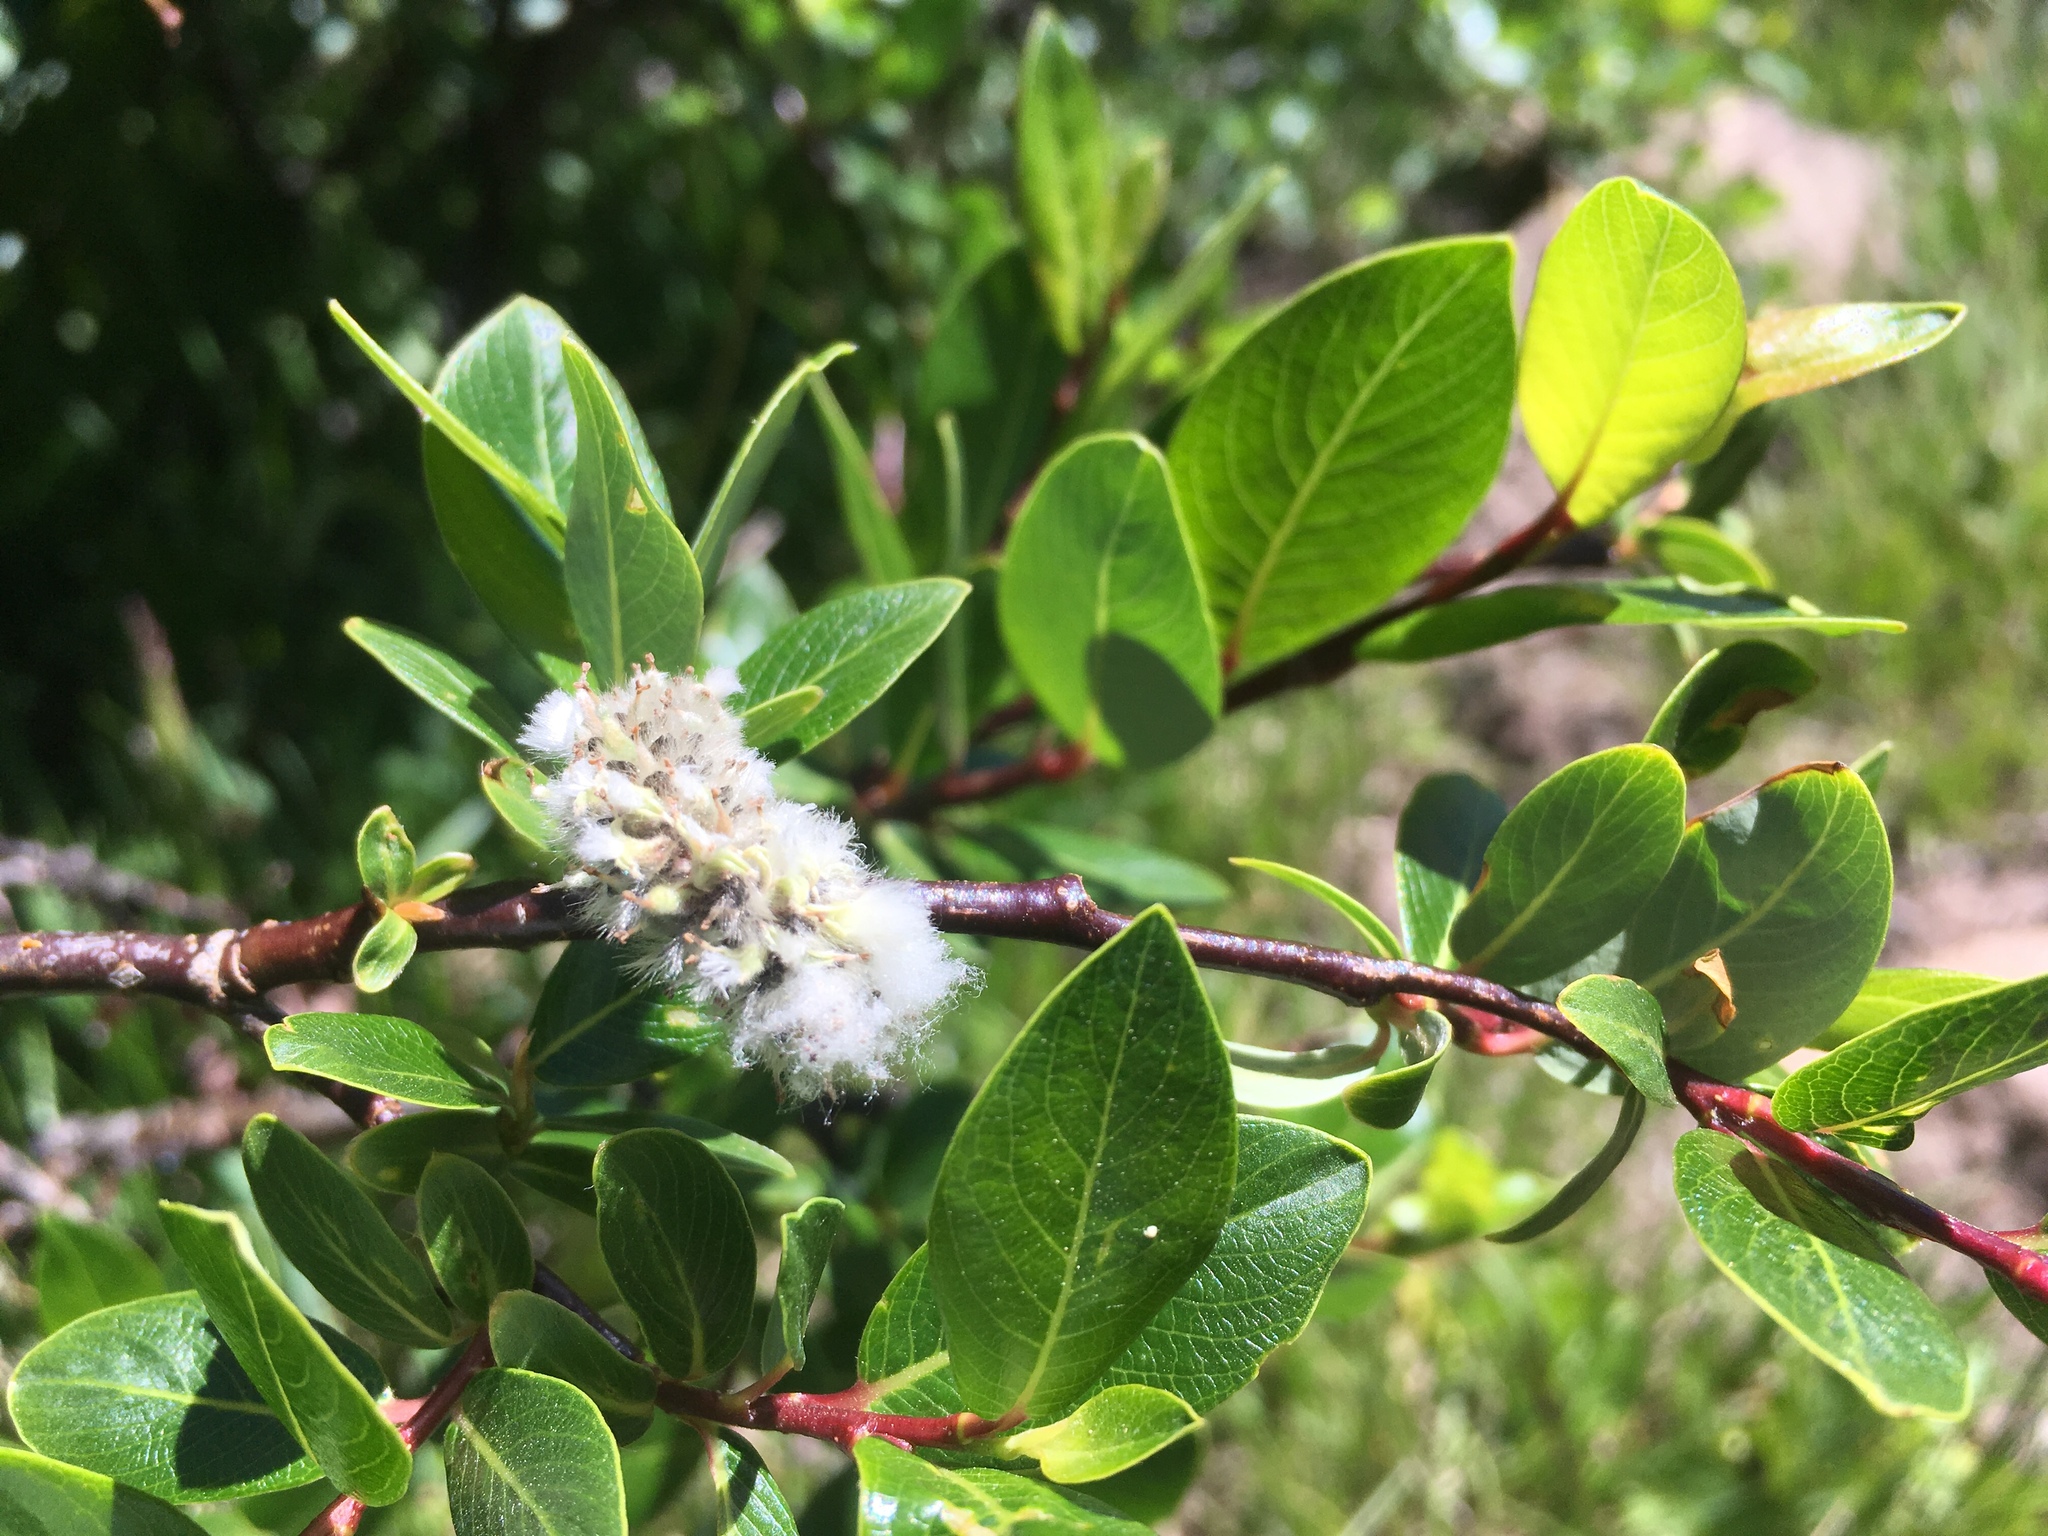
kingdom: Plantae
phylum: Tracheophyta
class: Magnoliopsida
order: Malpighiales
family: Salicaceae
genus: Salix
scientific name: Salix planifolia
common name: Mountain willow
